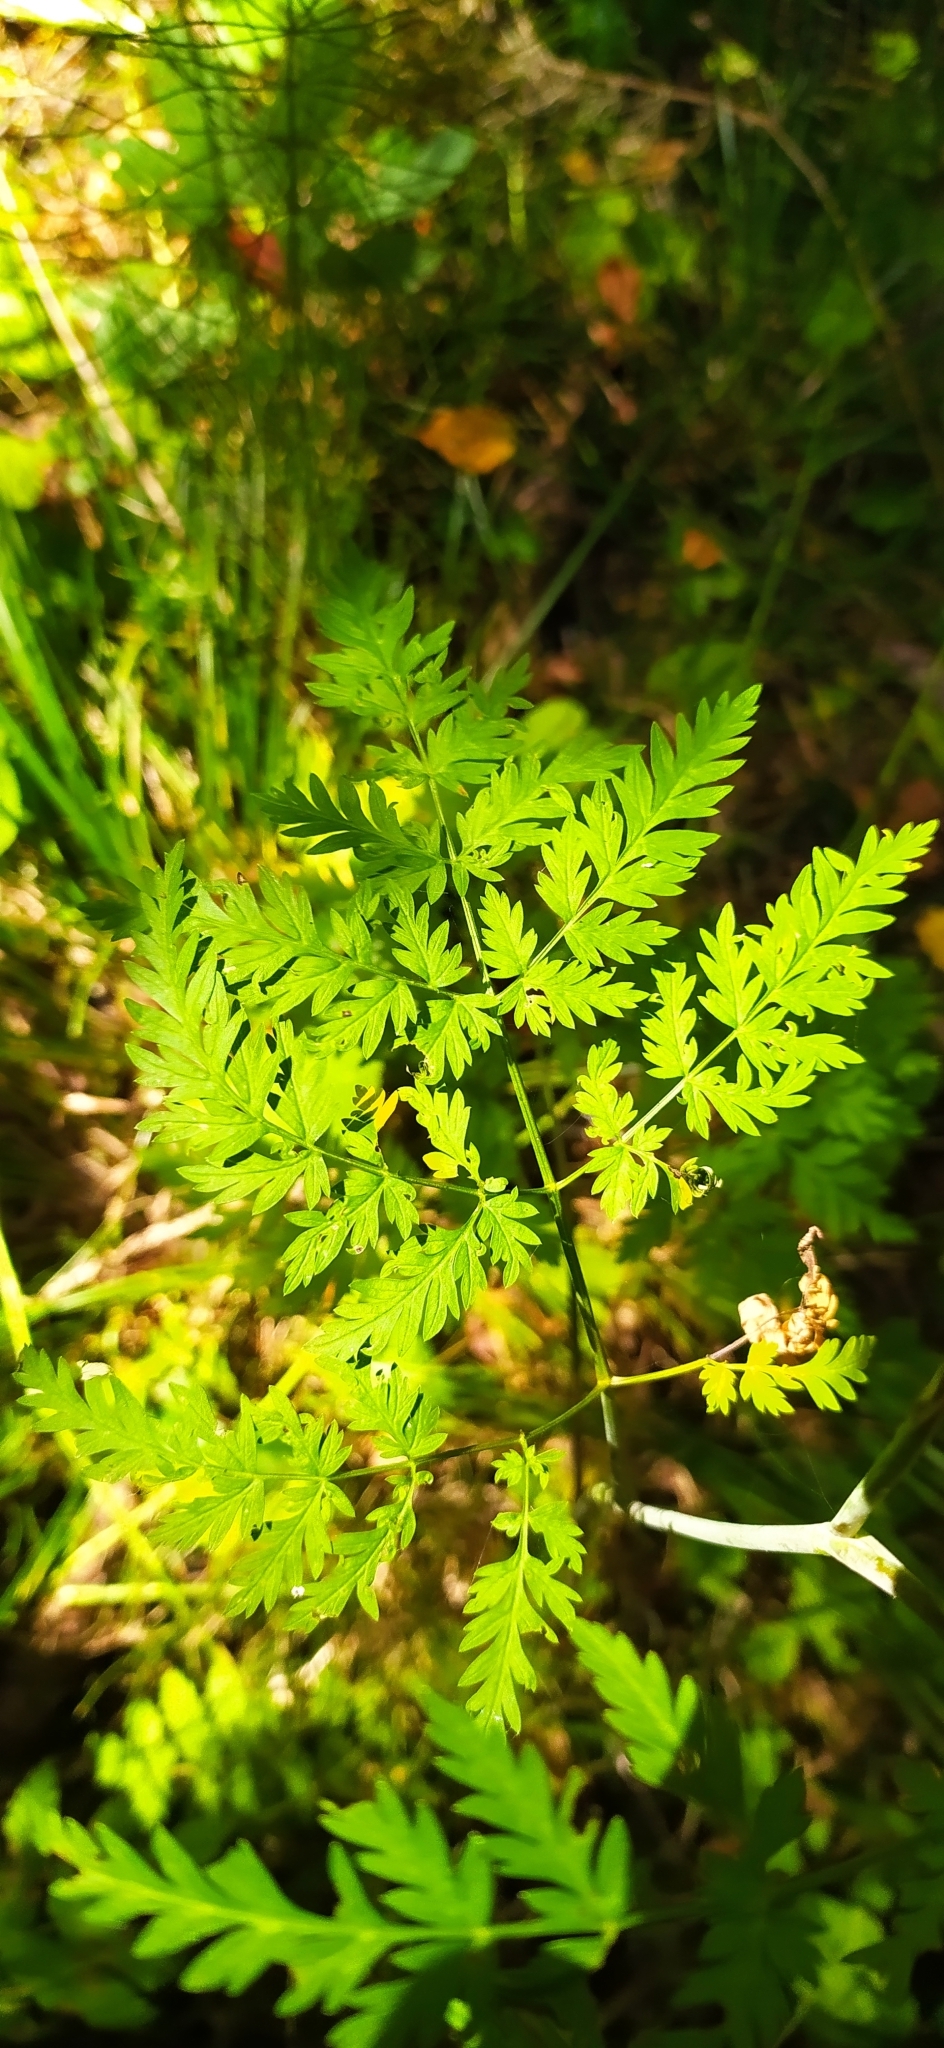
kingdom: Plantae
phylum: Tracheophyta
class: Magnoliopsida
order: Apiales
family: Apiaceae
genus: Conioselinum
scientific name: Conioselinum tataricum
